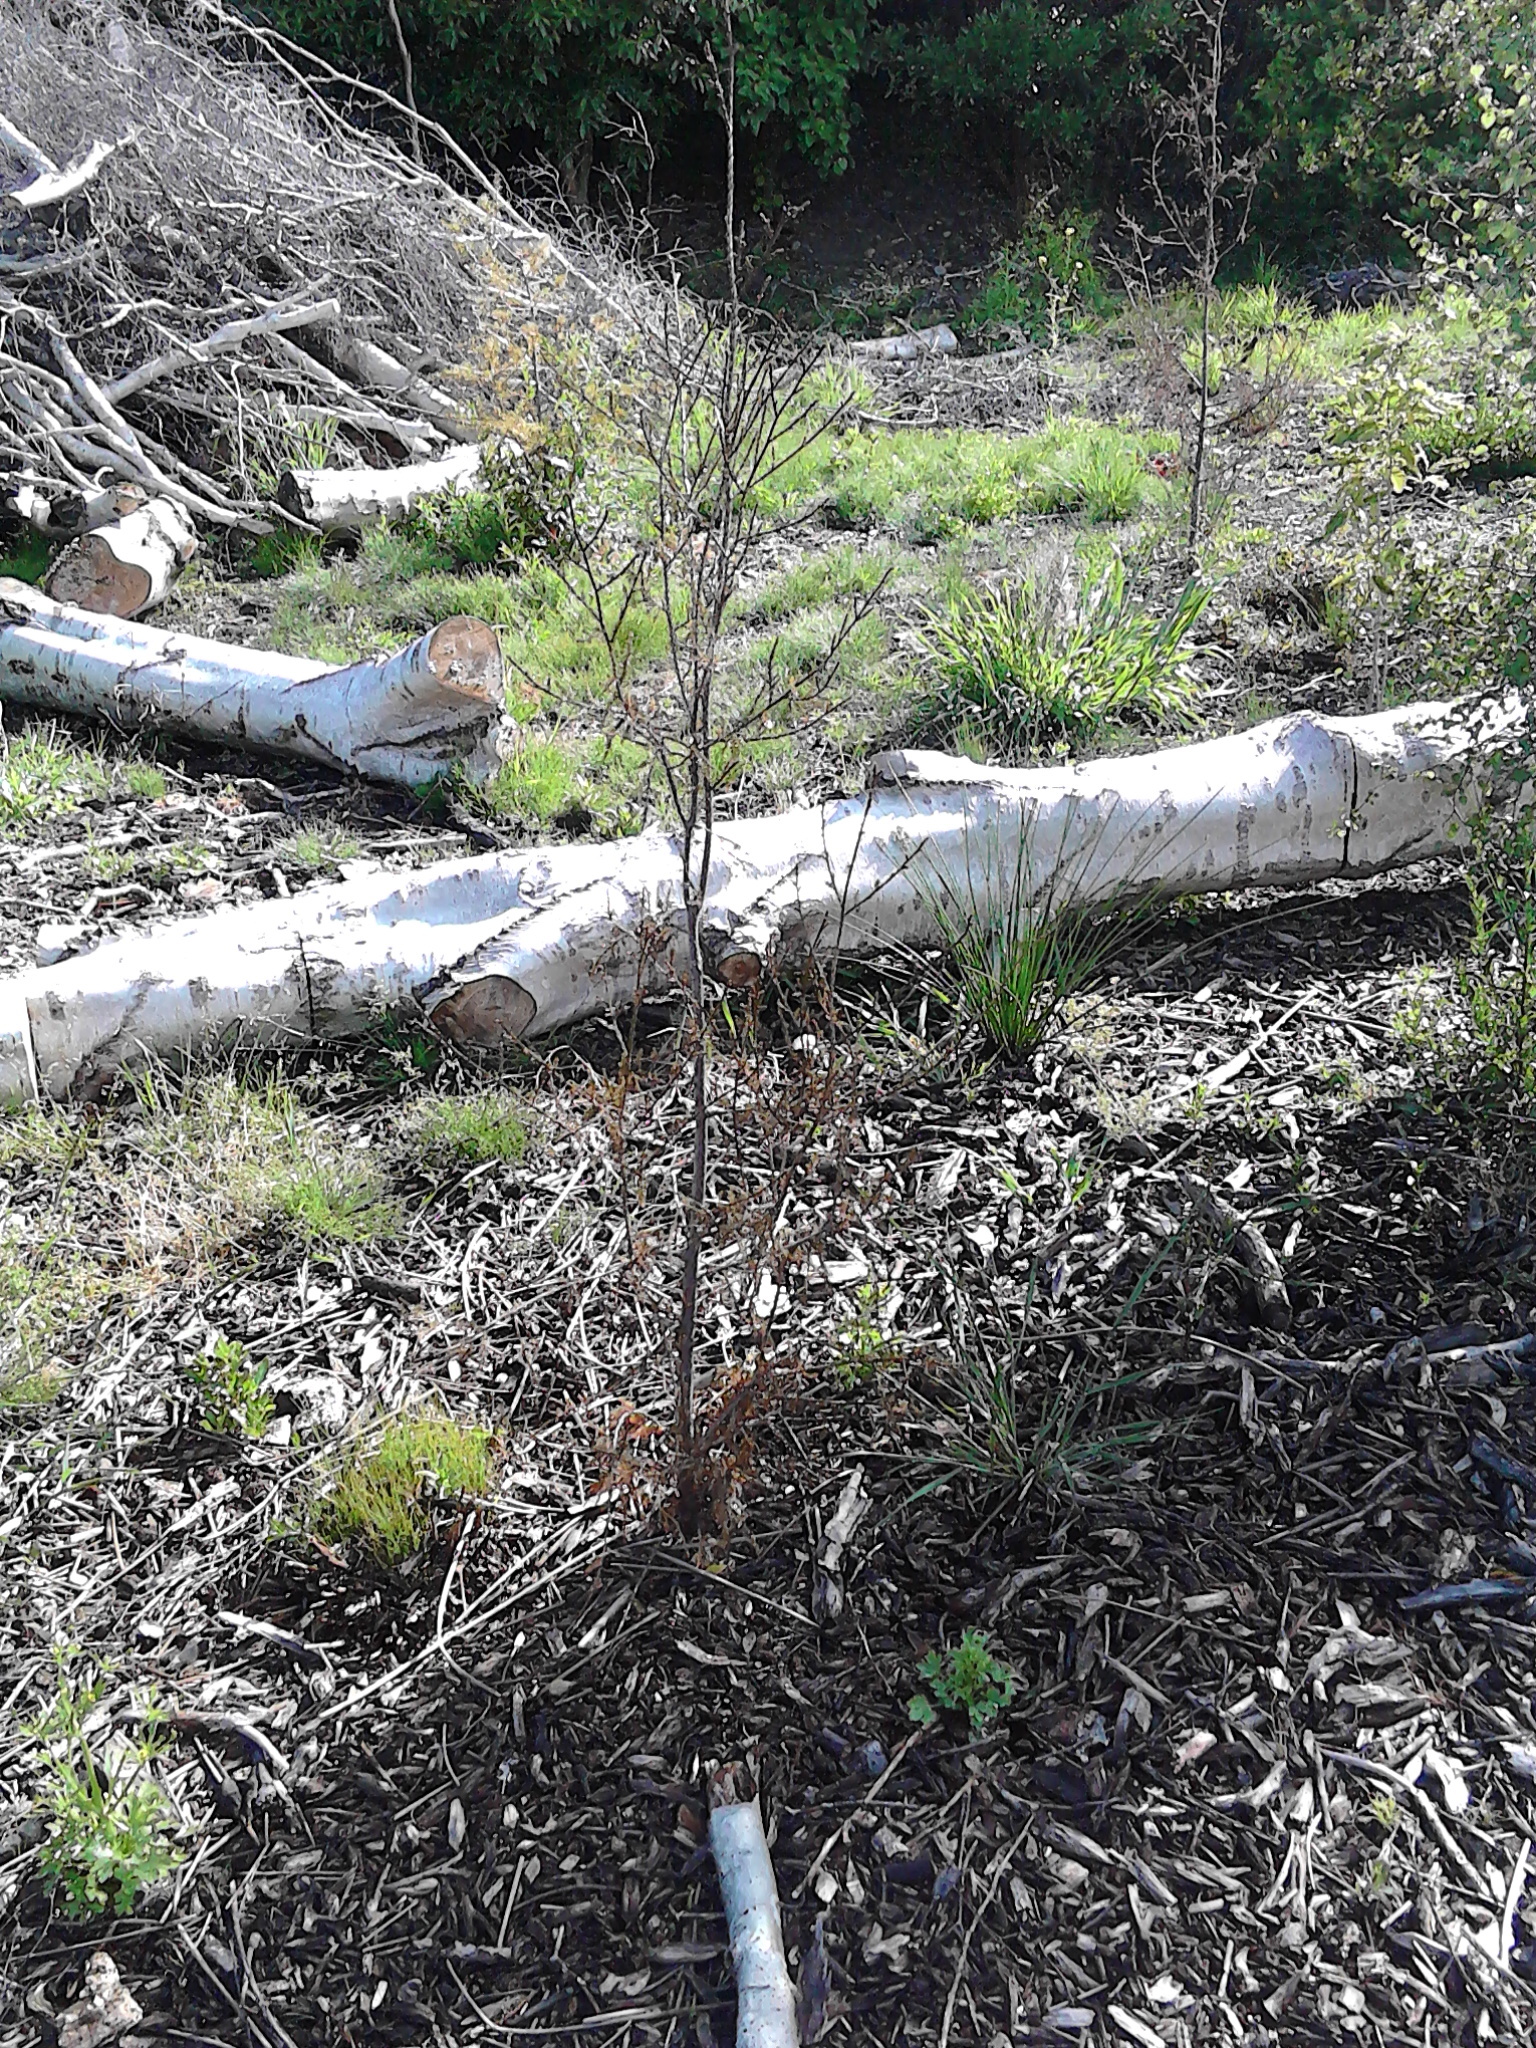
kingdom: Plantae
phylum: Tracheophyta
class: Pinopsida
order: Pinales
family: Podocarpaceae
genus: Dacrycarpus
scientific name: Dacrycarpus dacrydioides
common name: White pine
